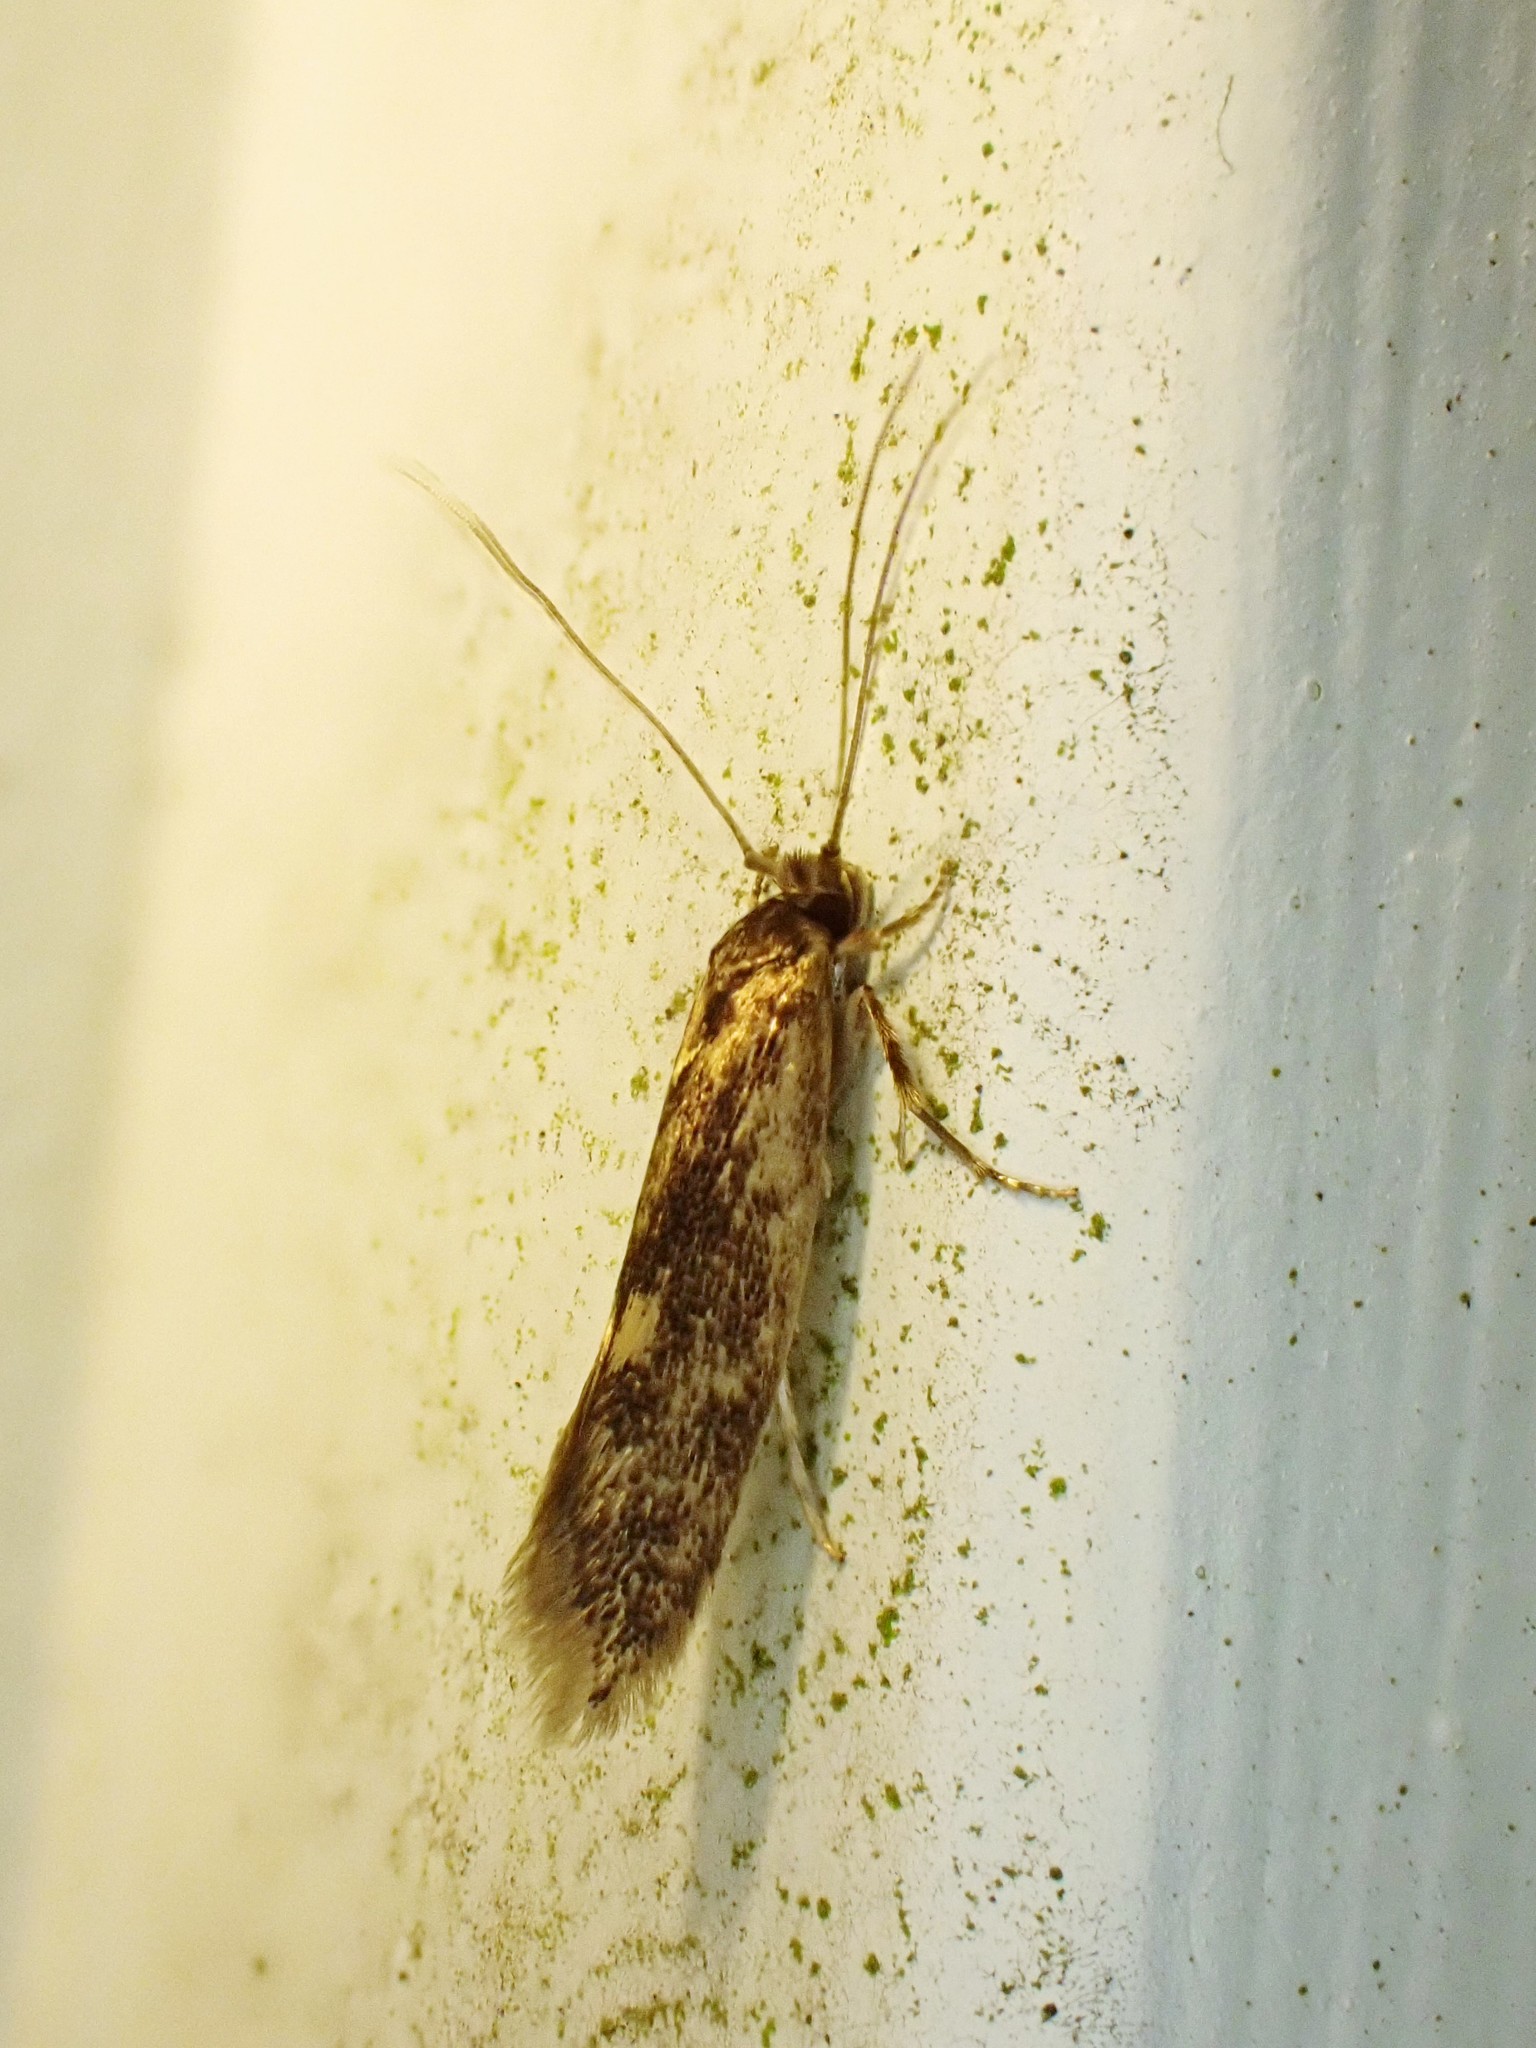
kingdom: Animalia
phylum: Arthropoda
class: Insecta
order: Lepidoptera
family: Tineidae
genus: Opogona
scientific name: Opogona omoscopa
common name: Moth
